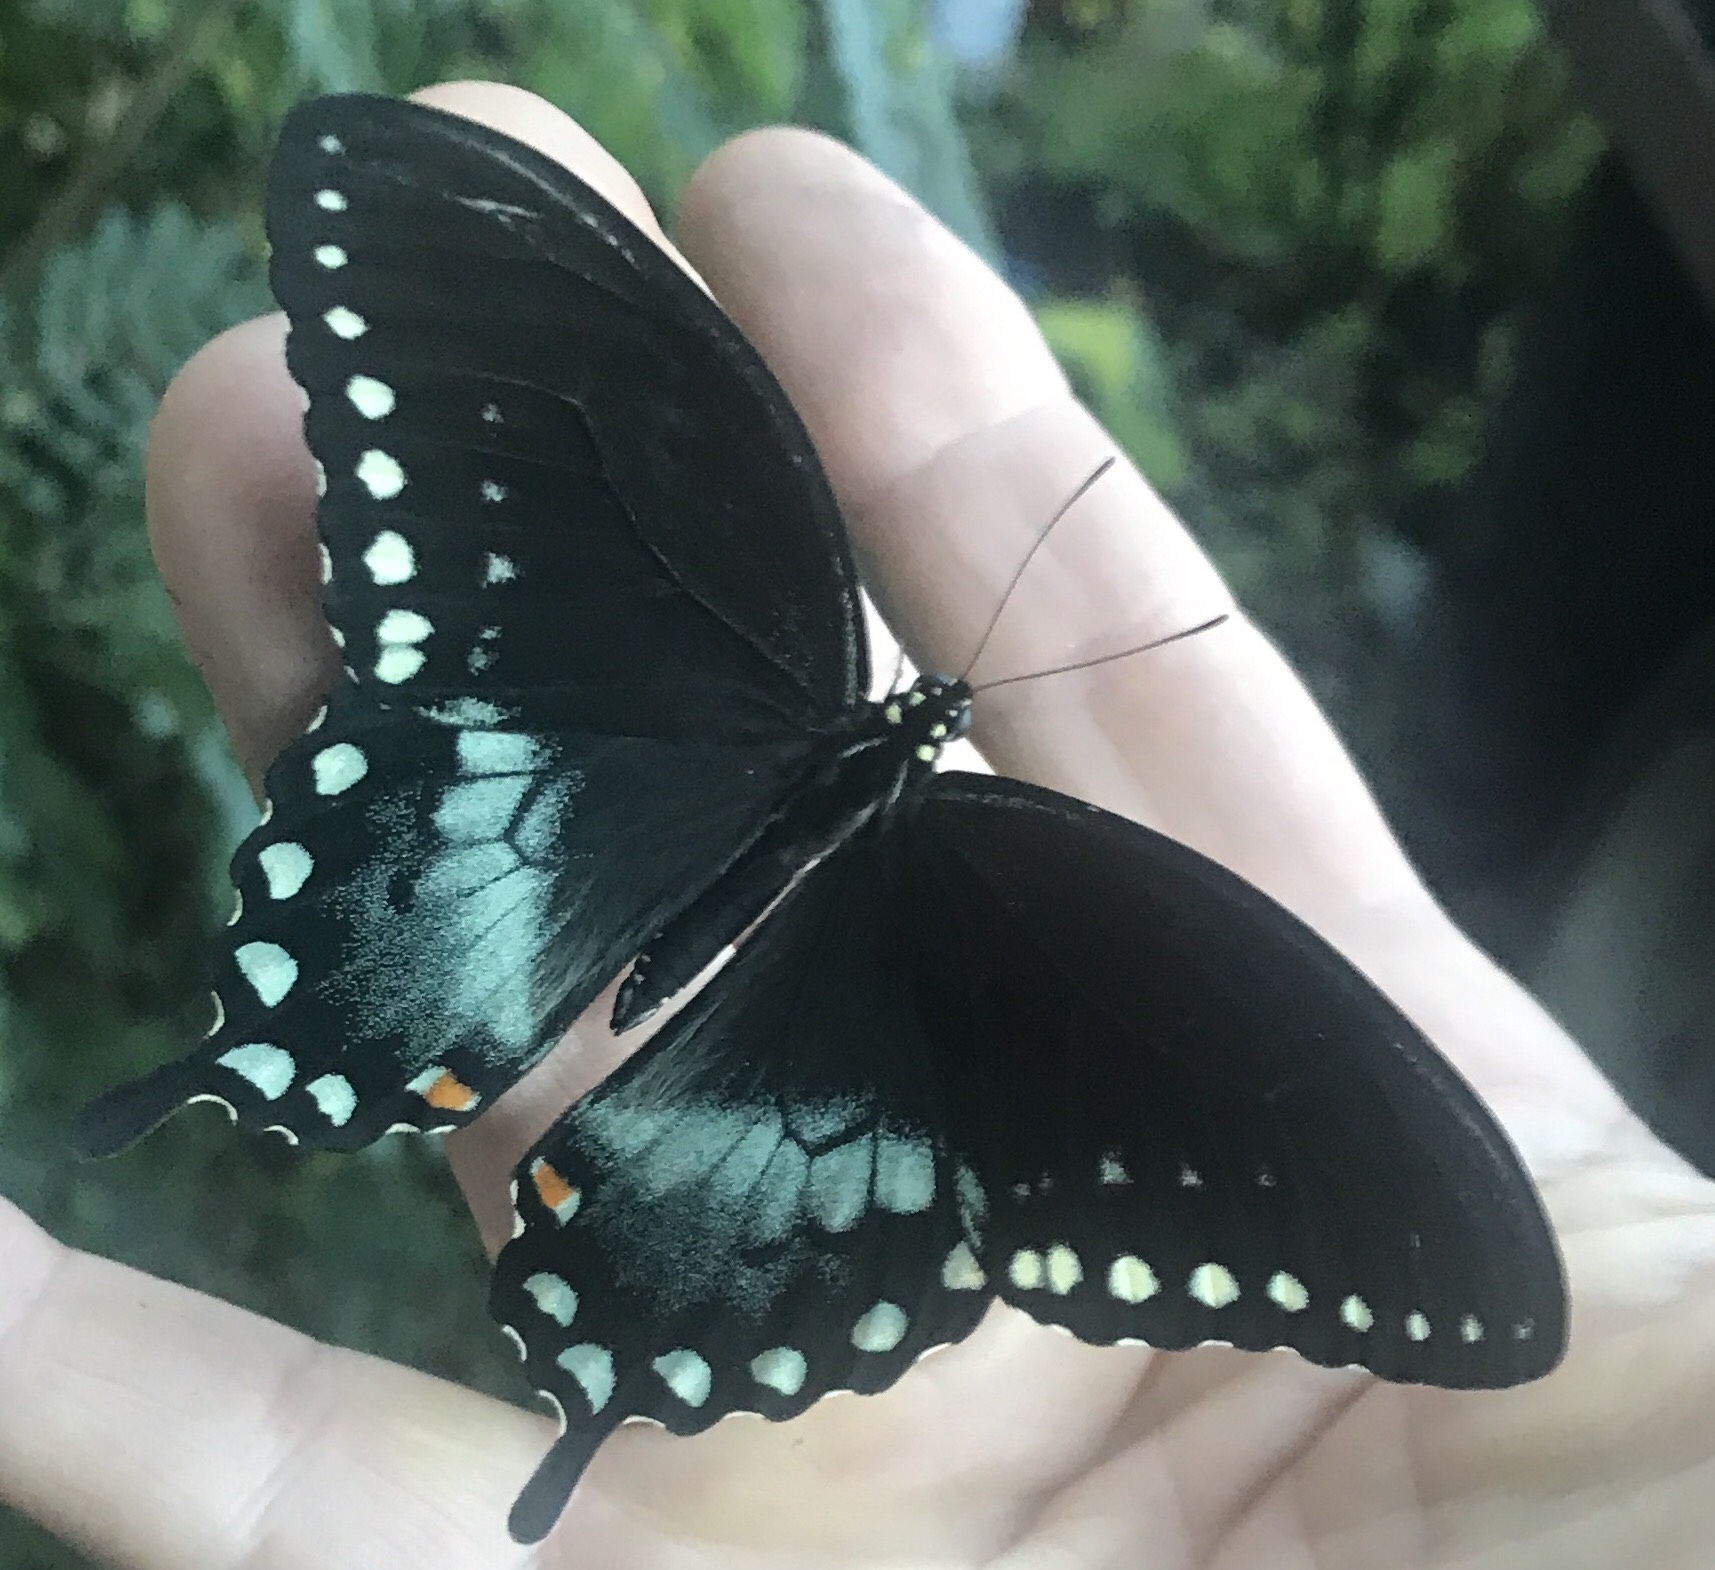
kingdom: Animalia
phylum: Arthropoda
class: Insecta
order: Lepidoptera
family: Papilionidae
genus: Papilio
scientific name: Papilio troilus
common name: Spicebush swallowtail
